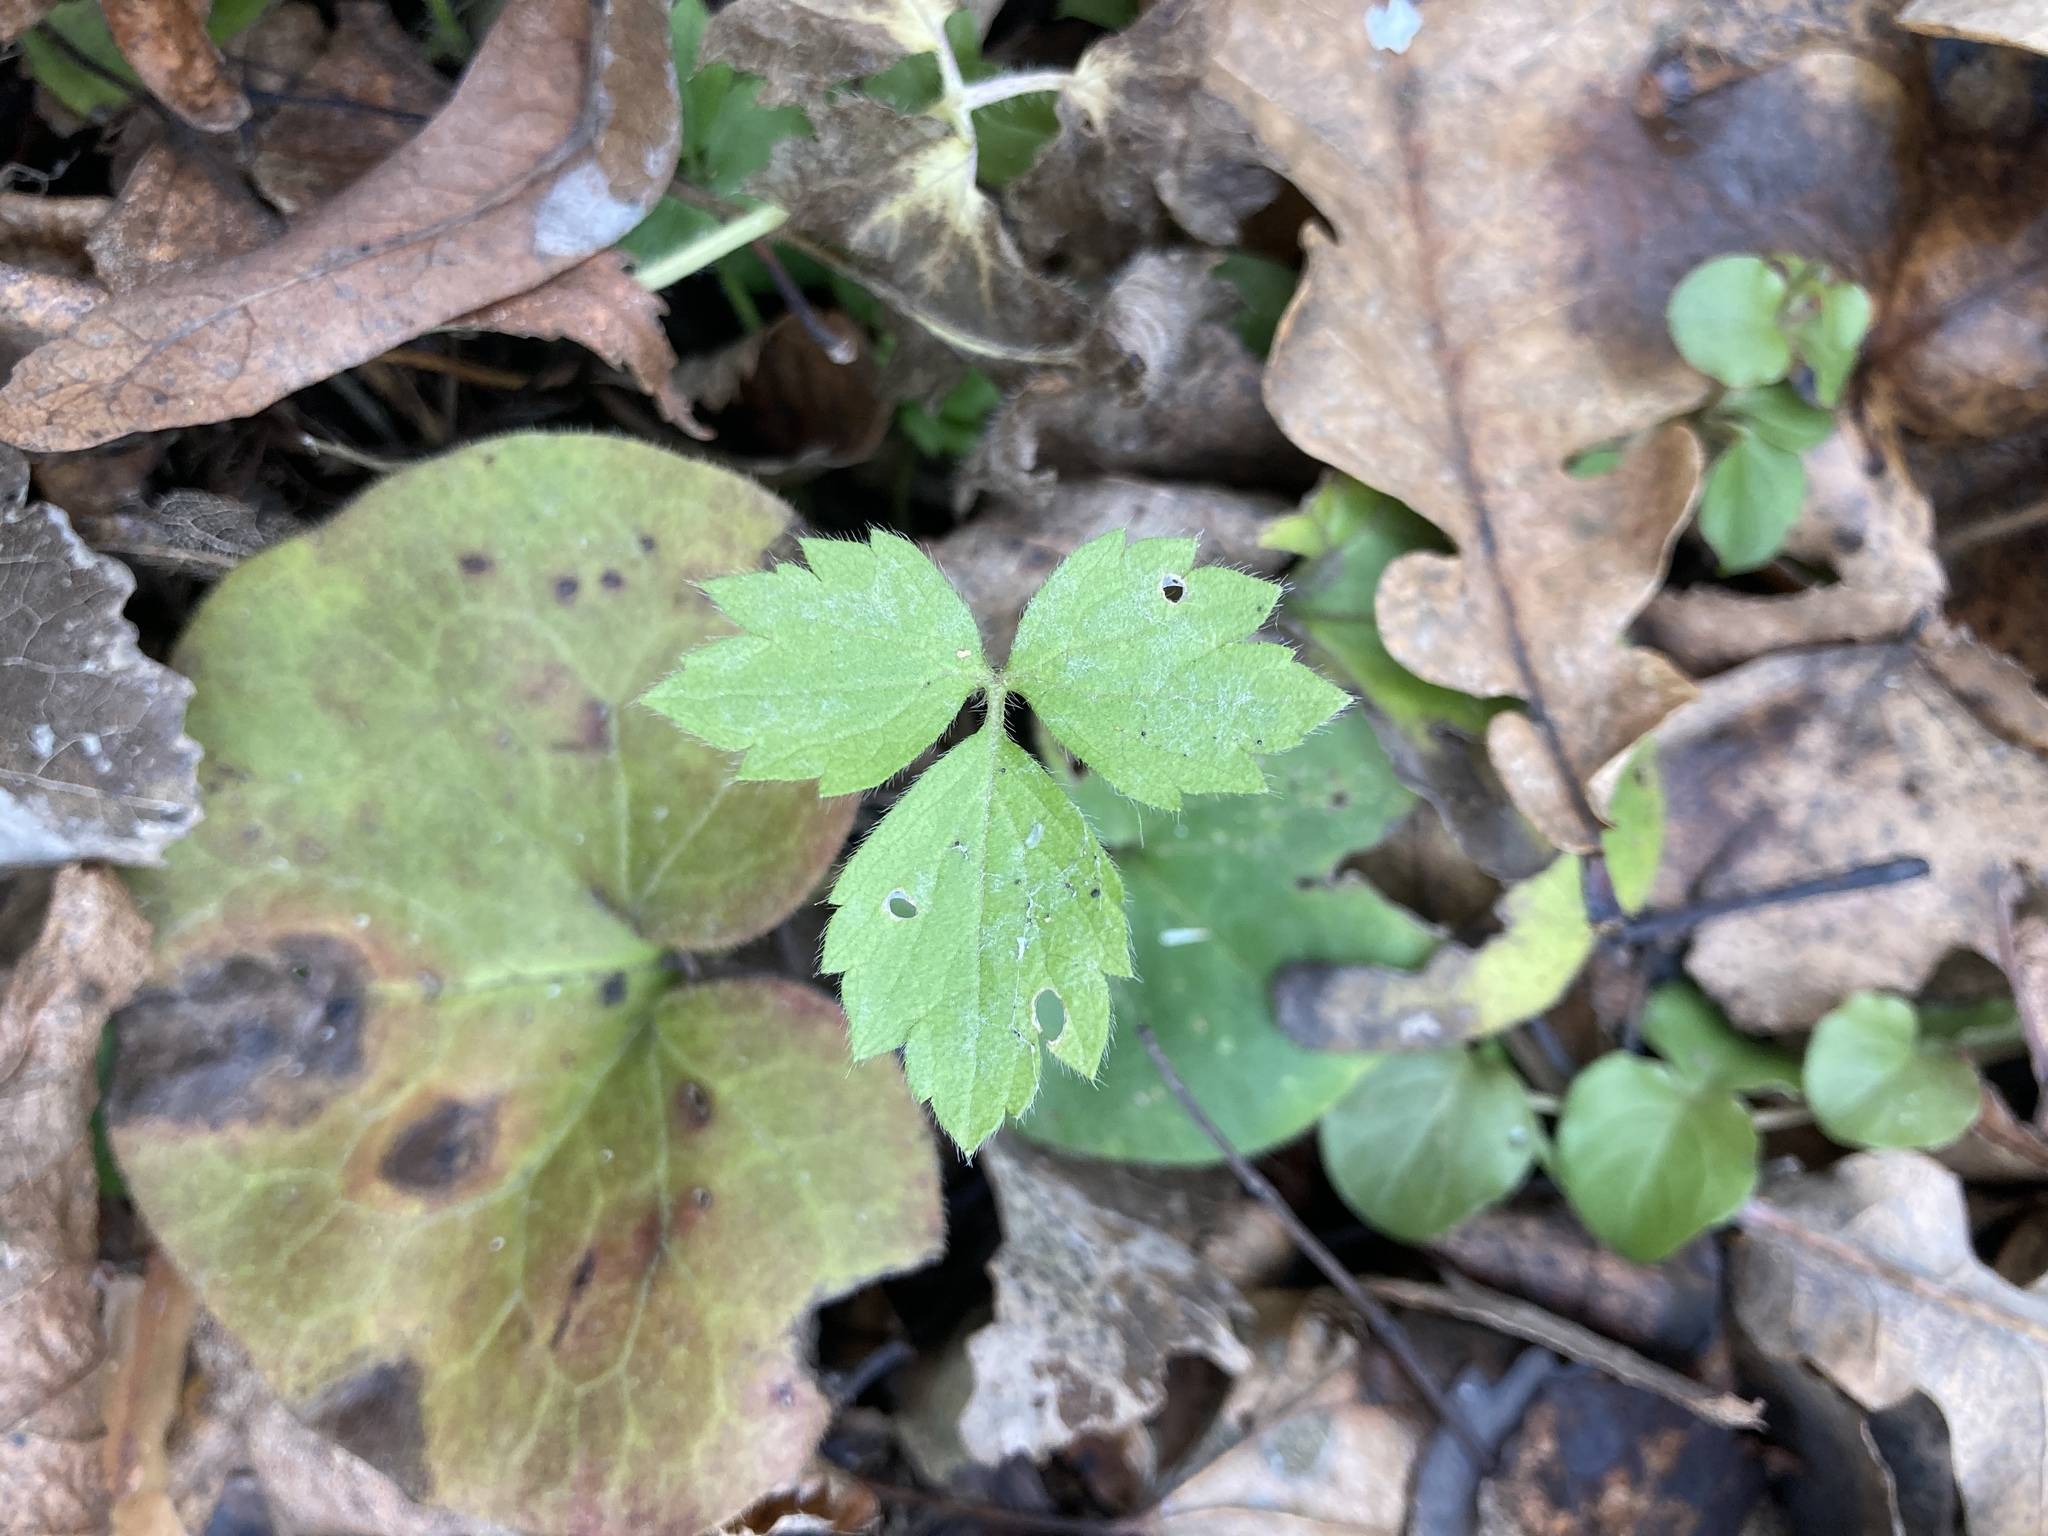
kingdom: Plantae
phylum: Tracheophyta
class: Magnoliopsida
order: Ranunculales
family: Ranunculaceae
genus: Ranunculus
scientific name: Ranunculus repens
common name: Creeping buttercup
